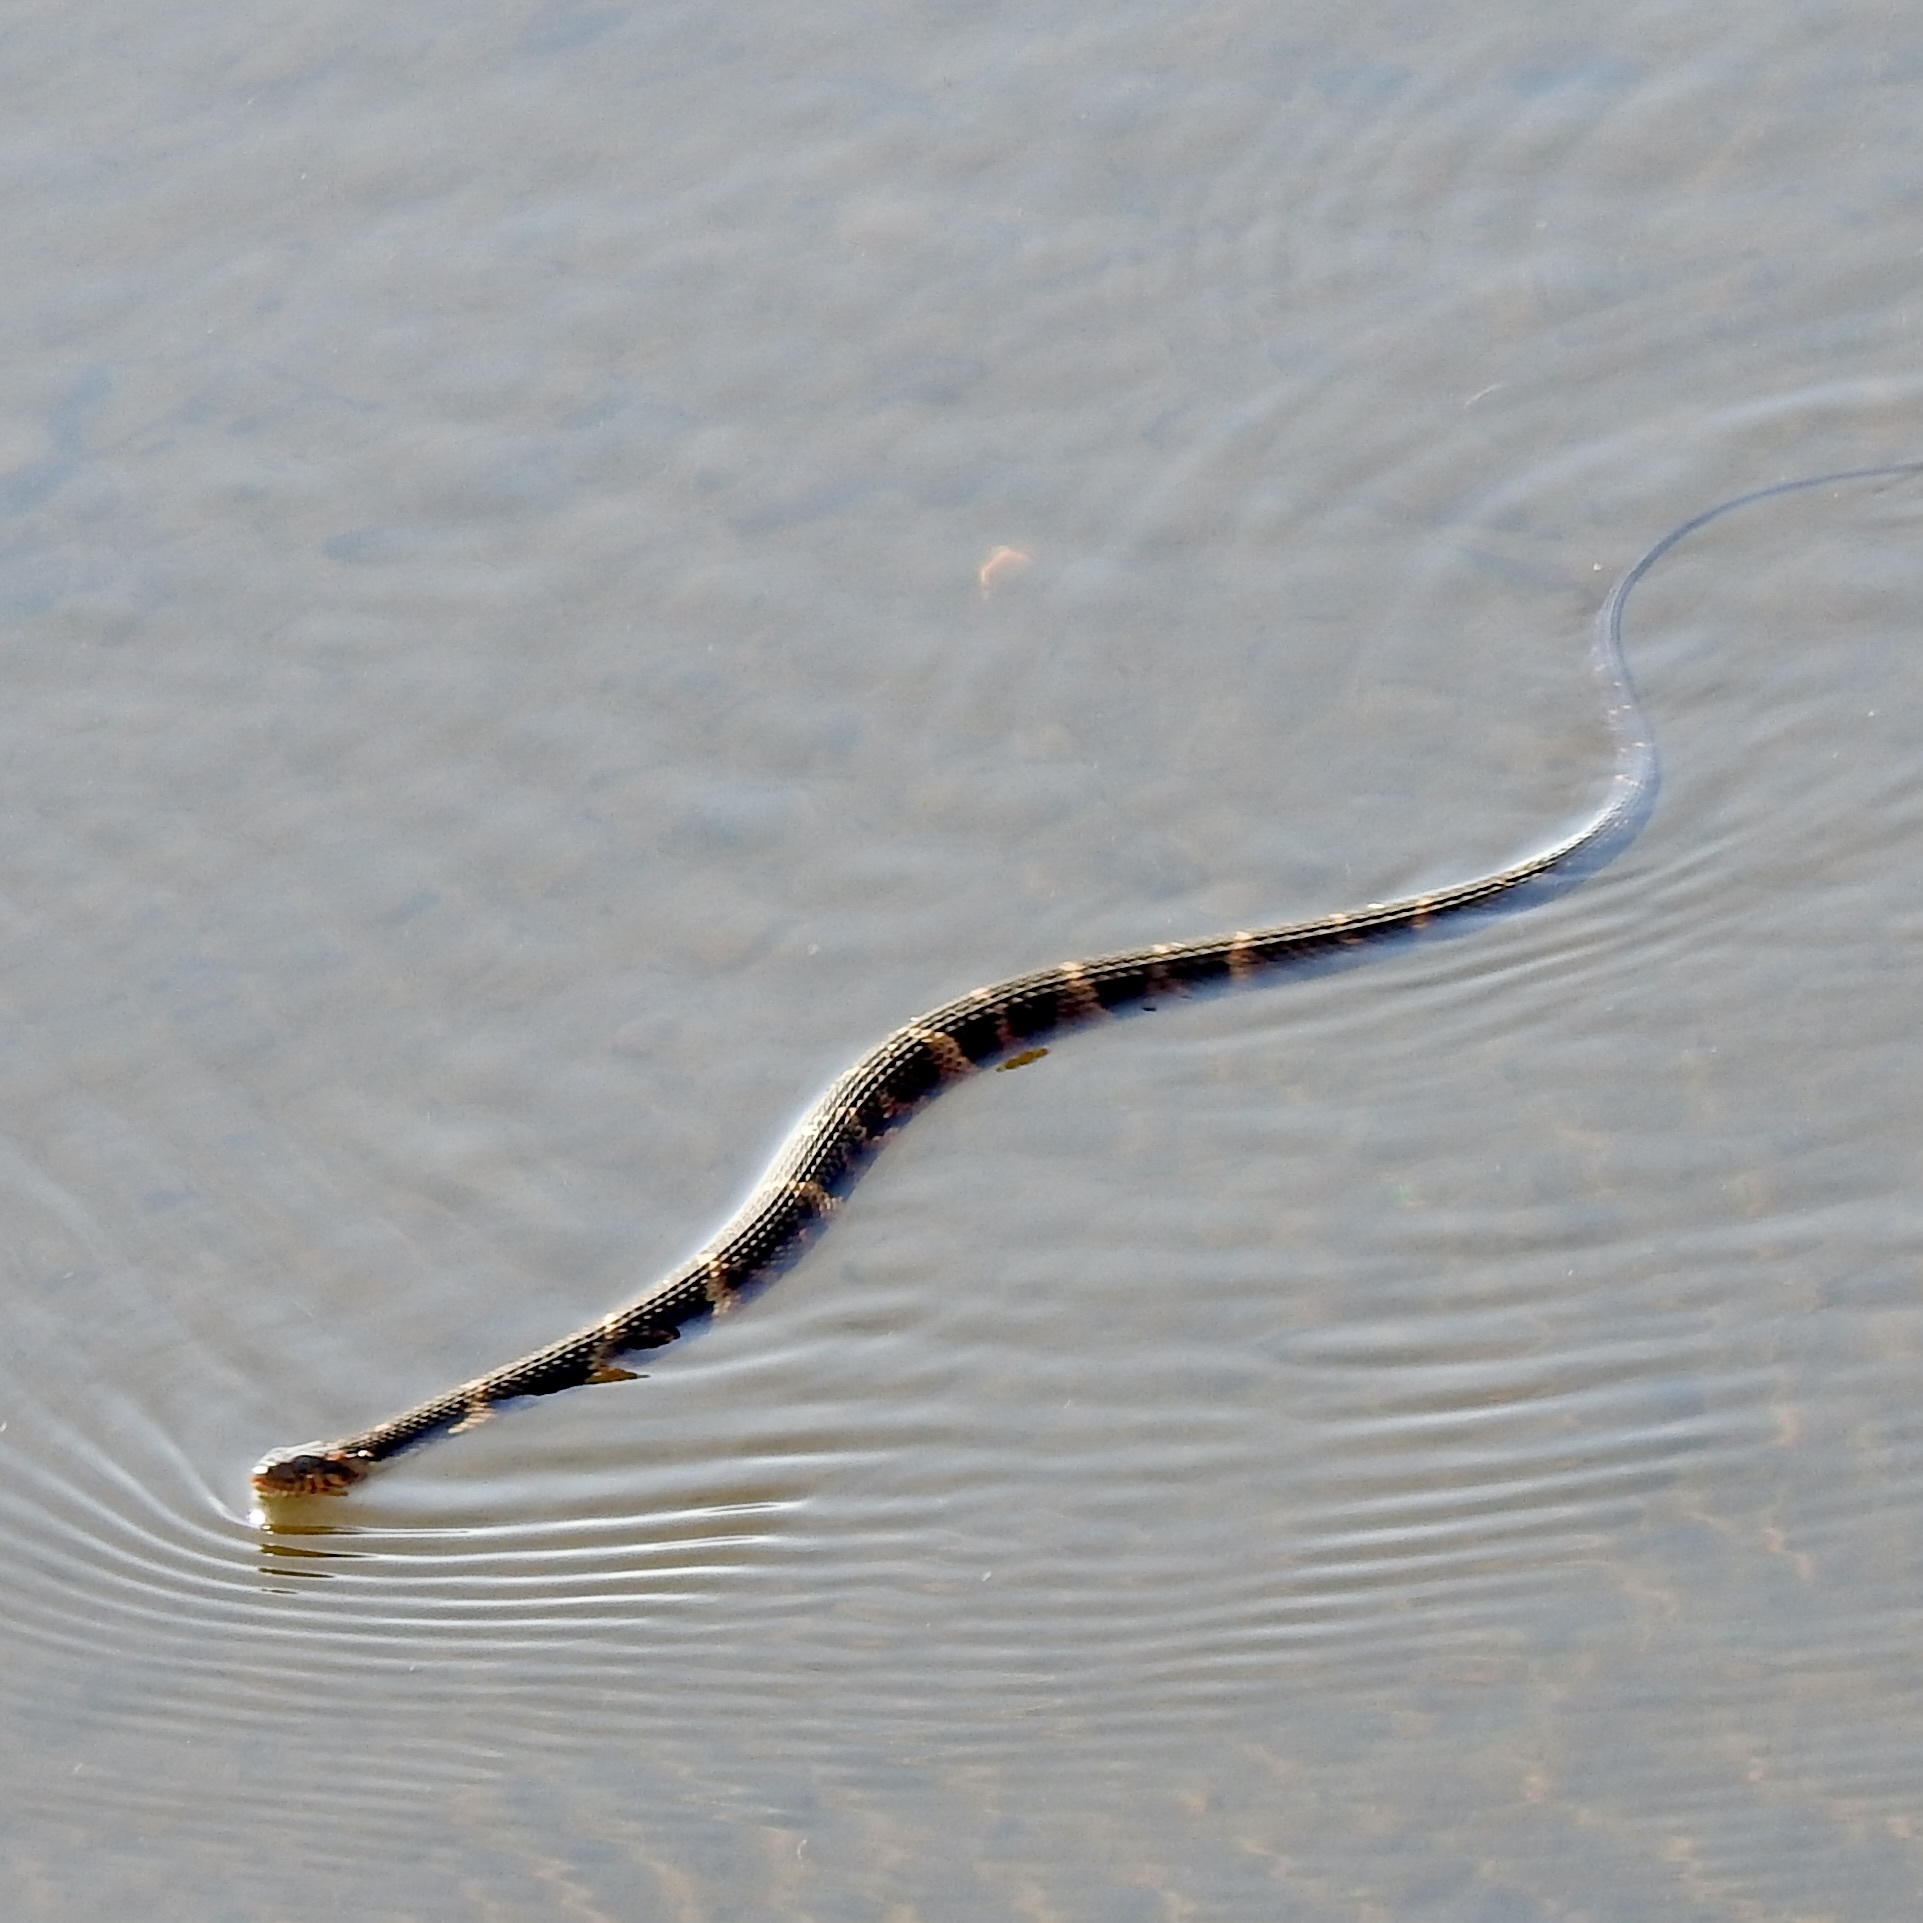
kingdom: Animalia
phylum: Chordata
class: Squamata
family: Colubridae
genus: Nerodia
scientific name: Nerodia fasciata
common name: Southern water snake
